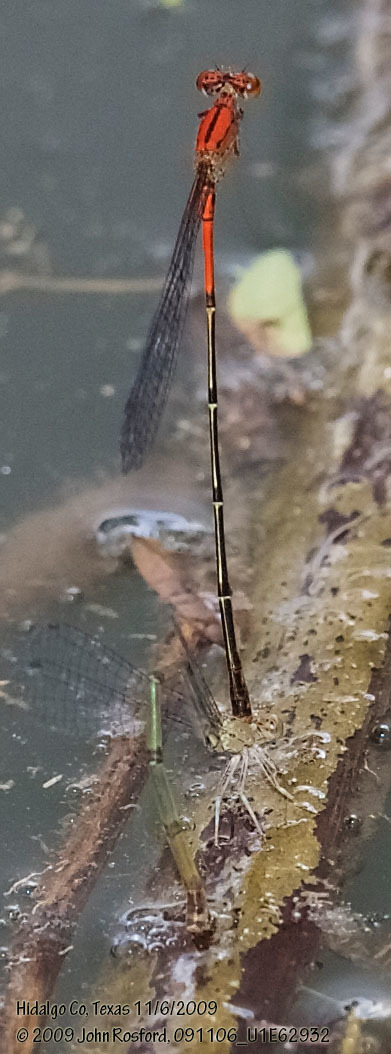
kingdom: Animalia
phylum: Arthropoda
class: Insecta
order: Odonata
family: Coenagrionidae
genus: Neoneura
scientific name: Neoneura amelia
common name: Amelia’s threadtail
